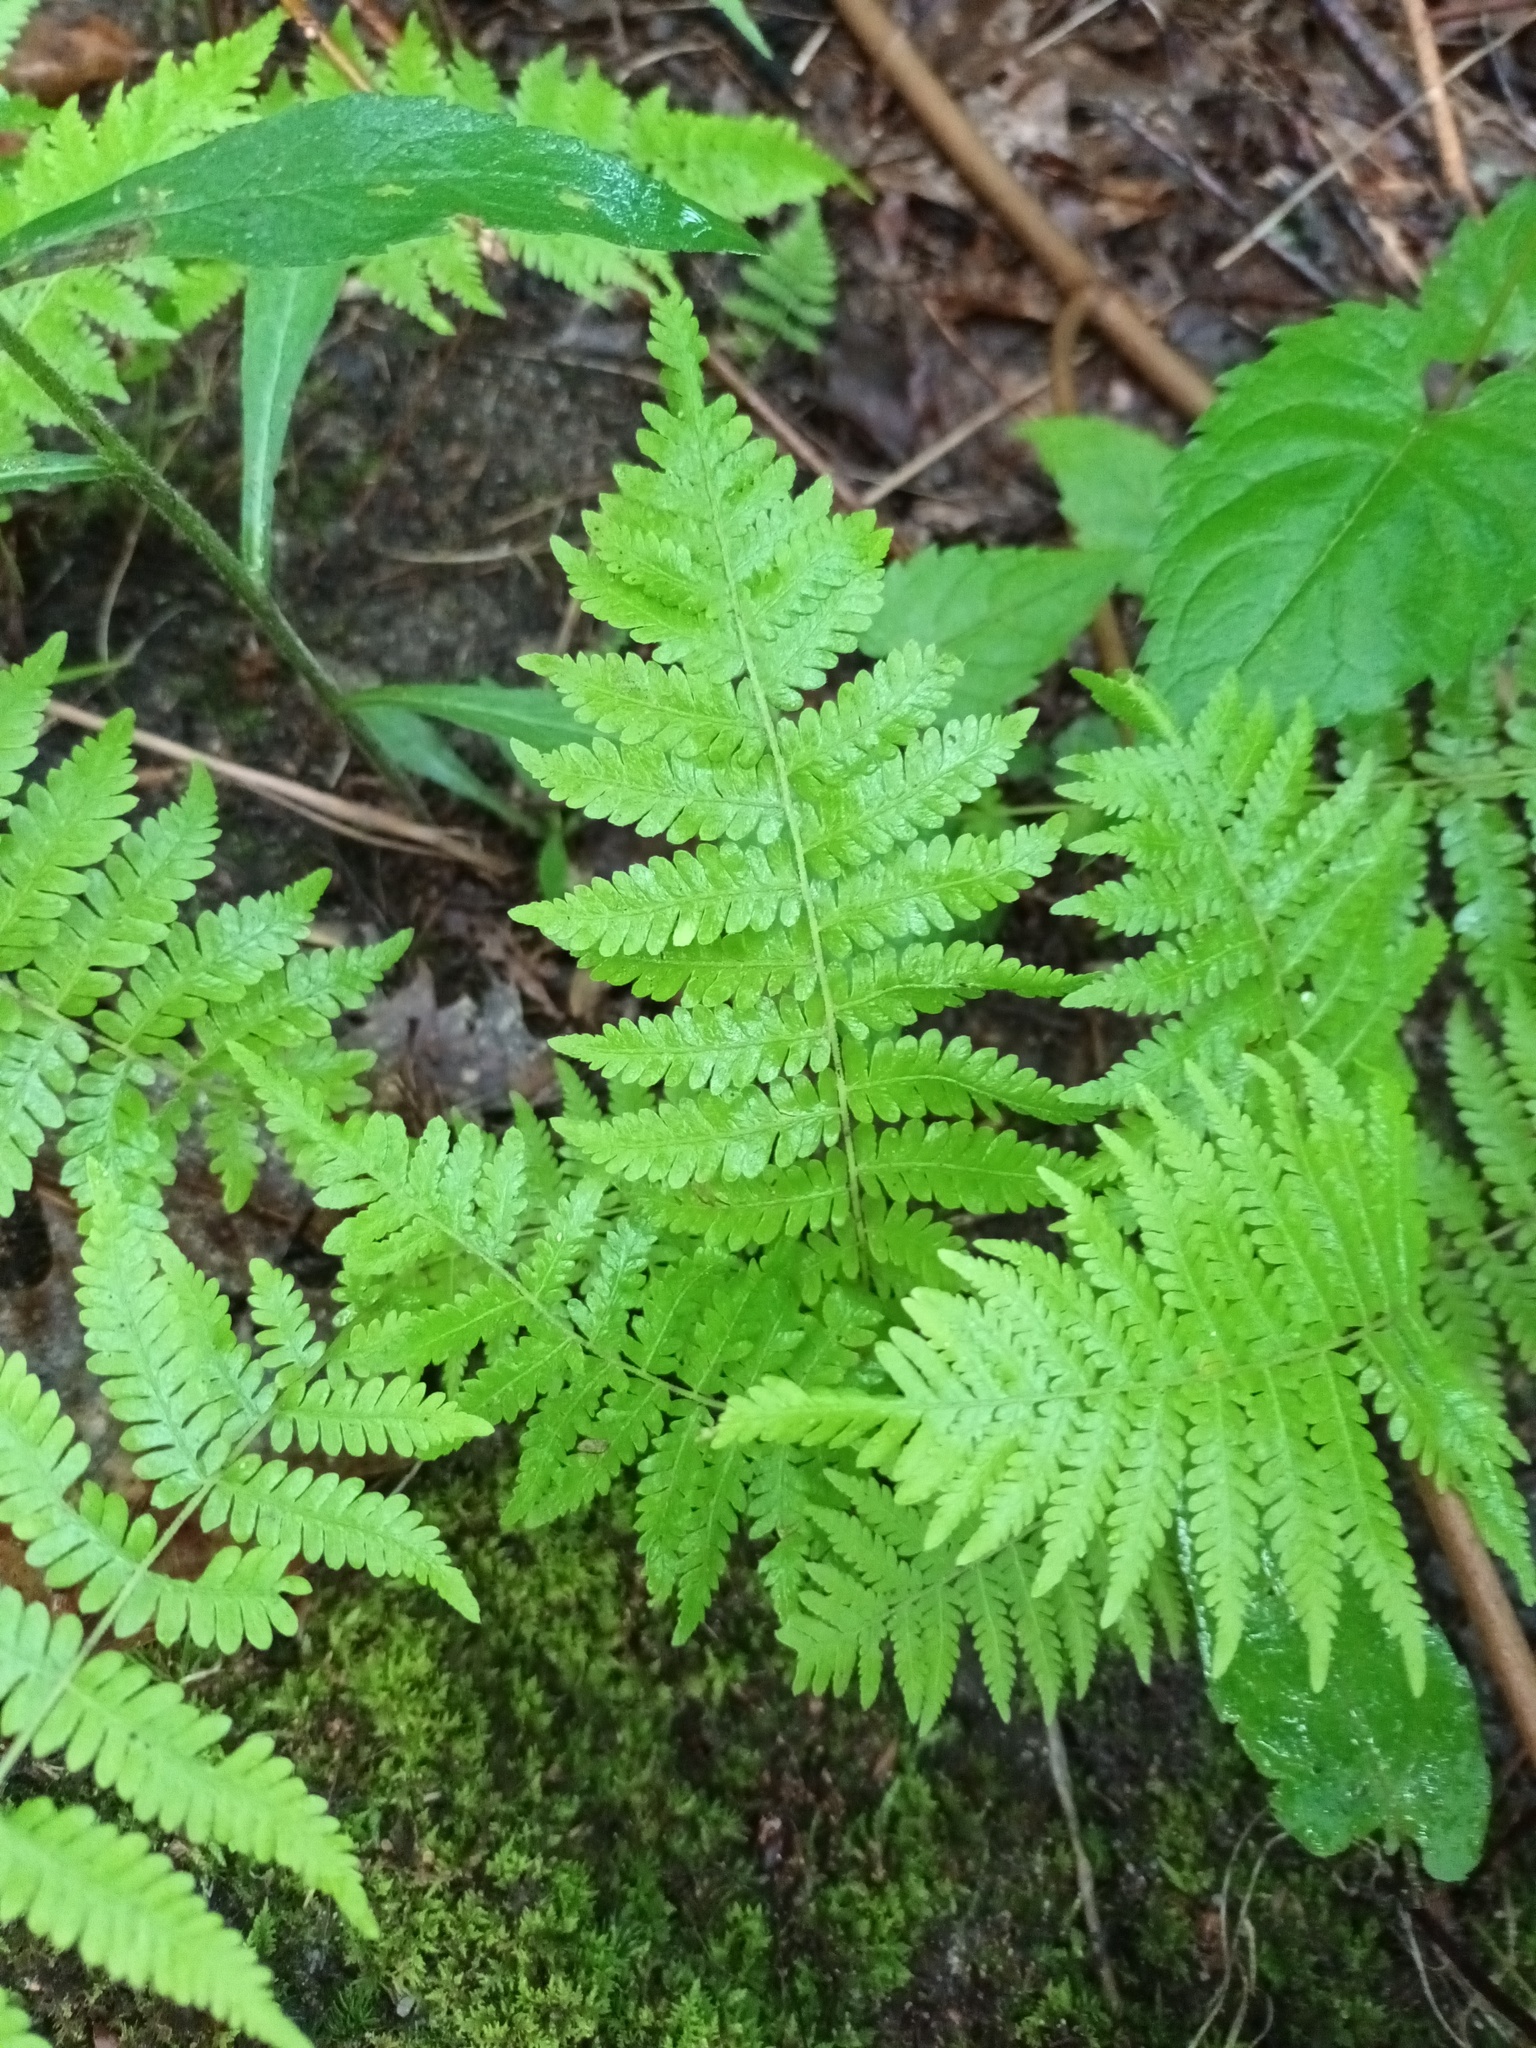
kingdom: Plantae
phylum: Tracheophyta
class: Polypodiopsida
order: Polypodiales
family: Thelypteridaceae
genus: Amauropelta
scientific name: Amauropelta noveboracensis
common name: New york fern
